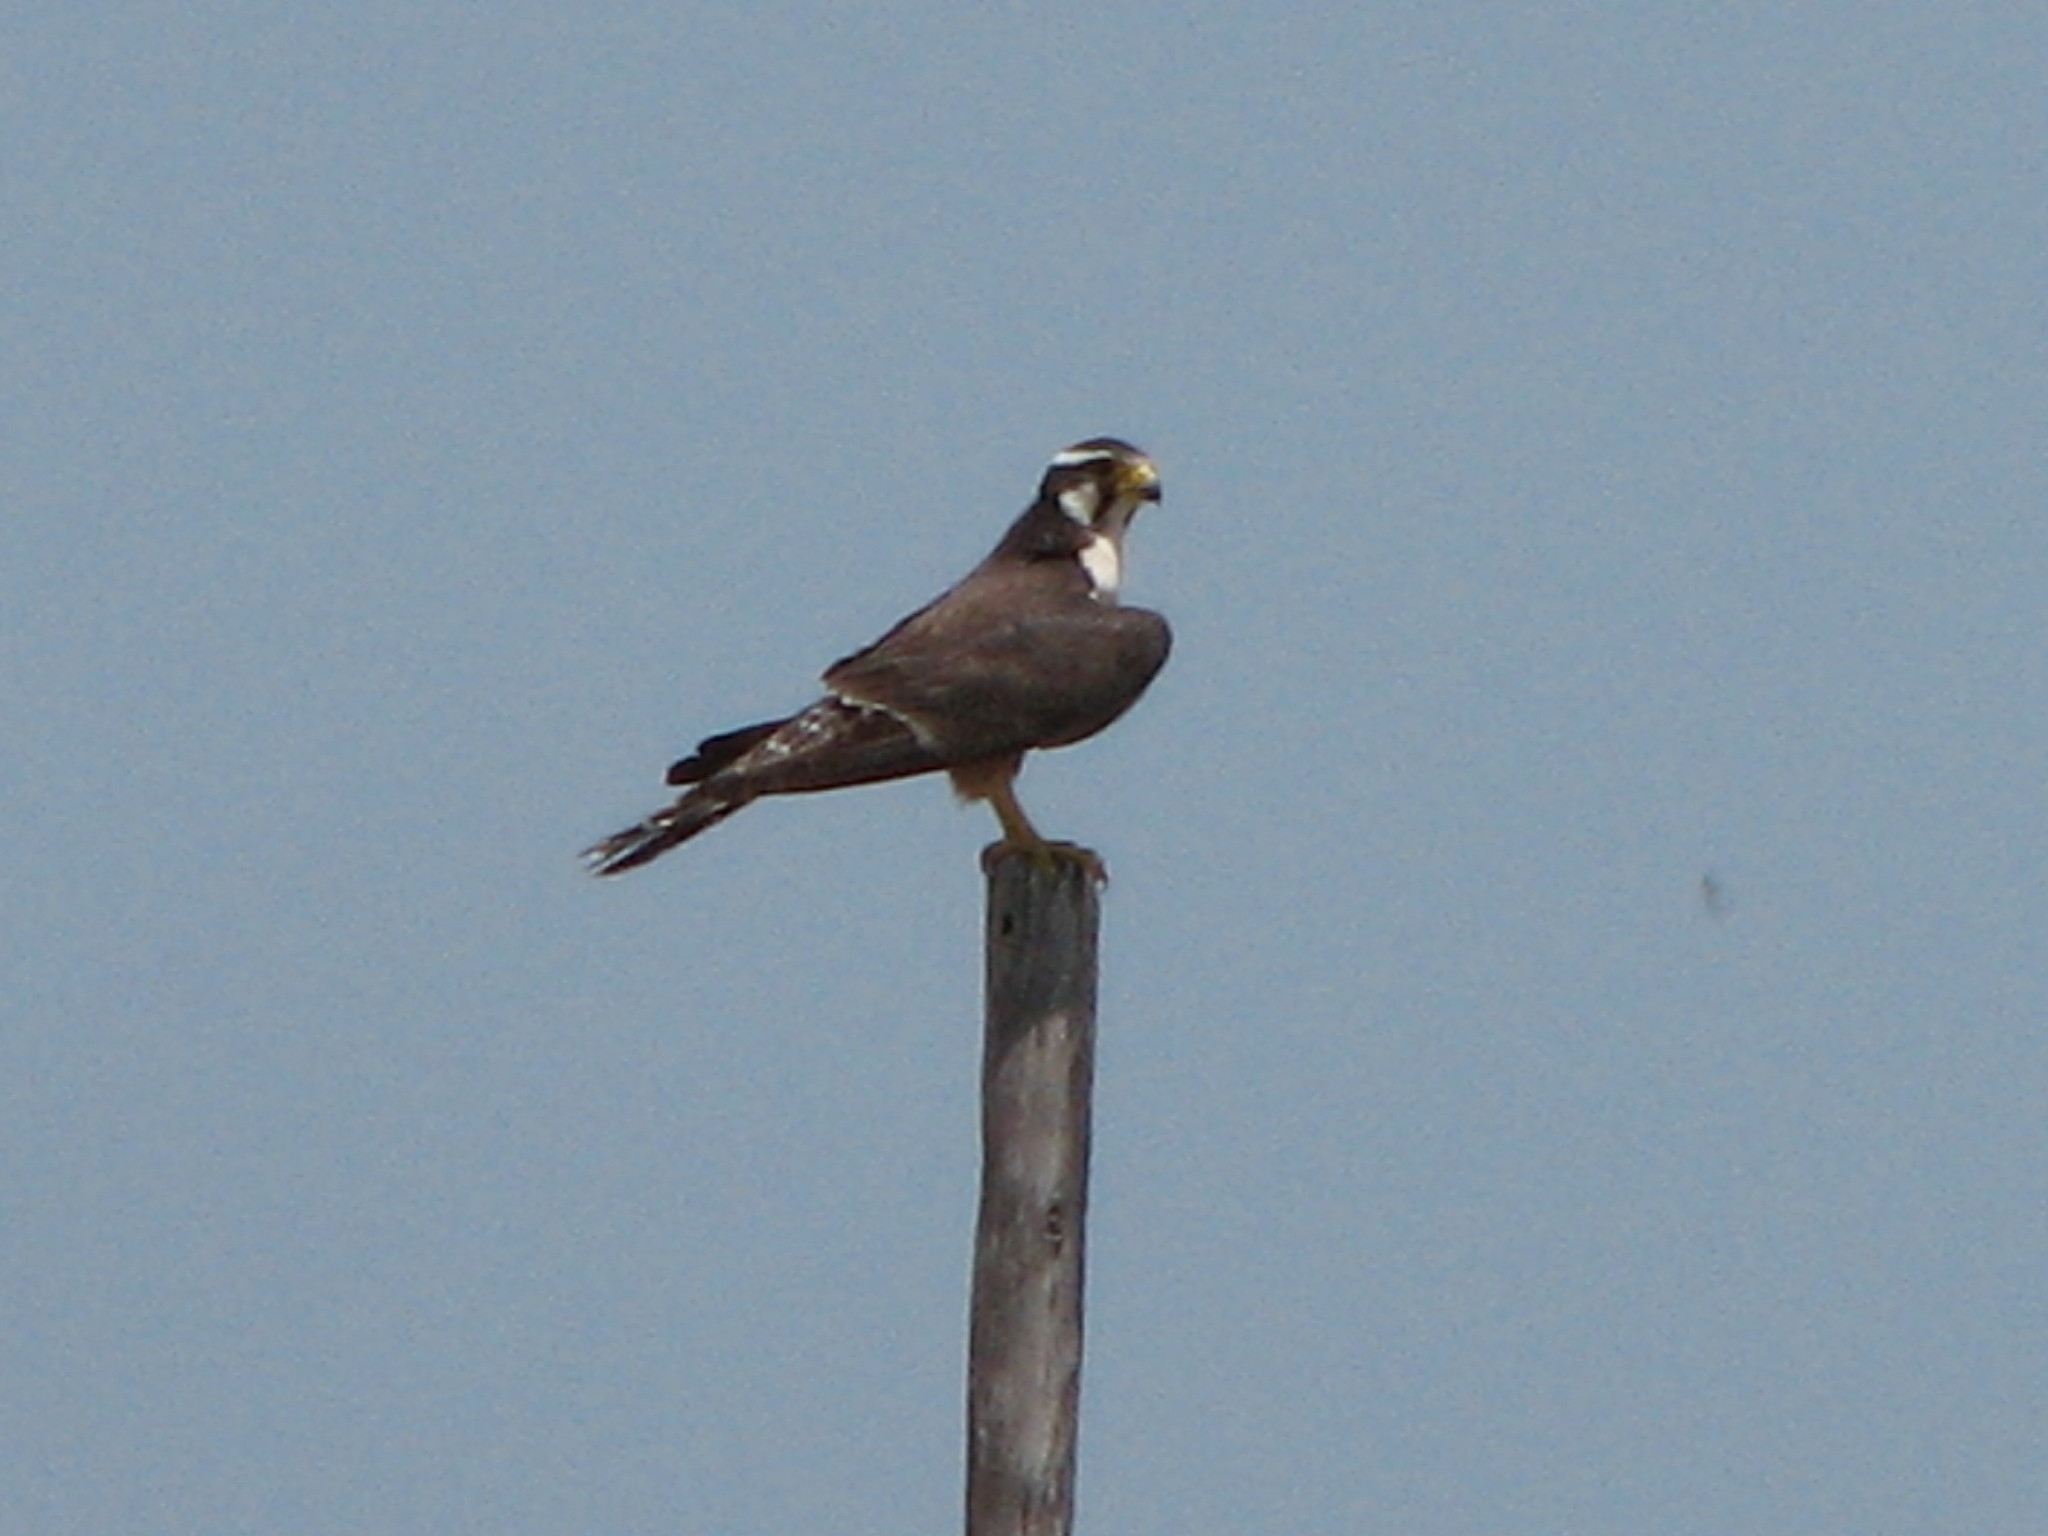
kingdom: Animalia
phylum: Chordata
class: Aves
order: Falconiformes
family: Falconidae
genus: Falco
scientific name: Falco femoralis
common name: Aplomado falcon
